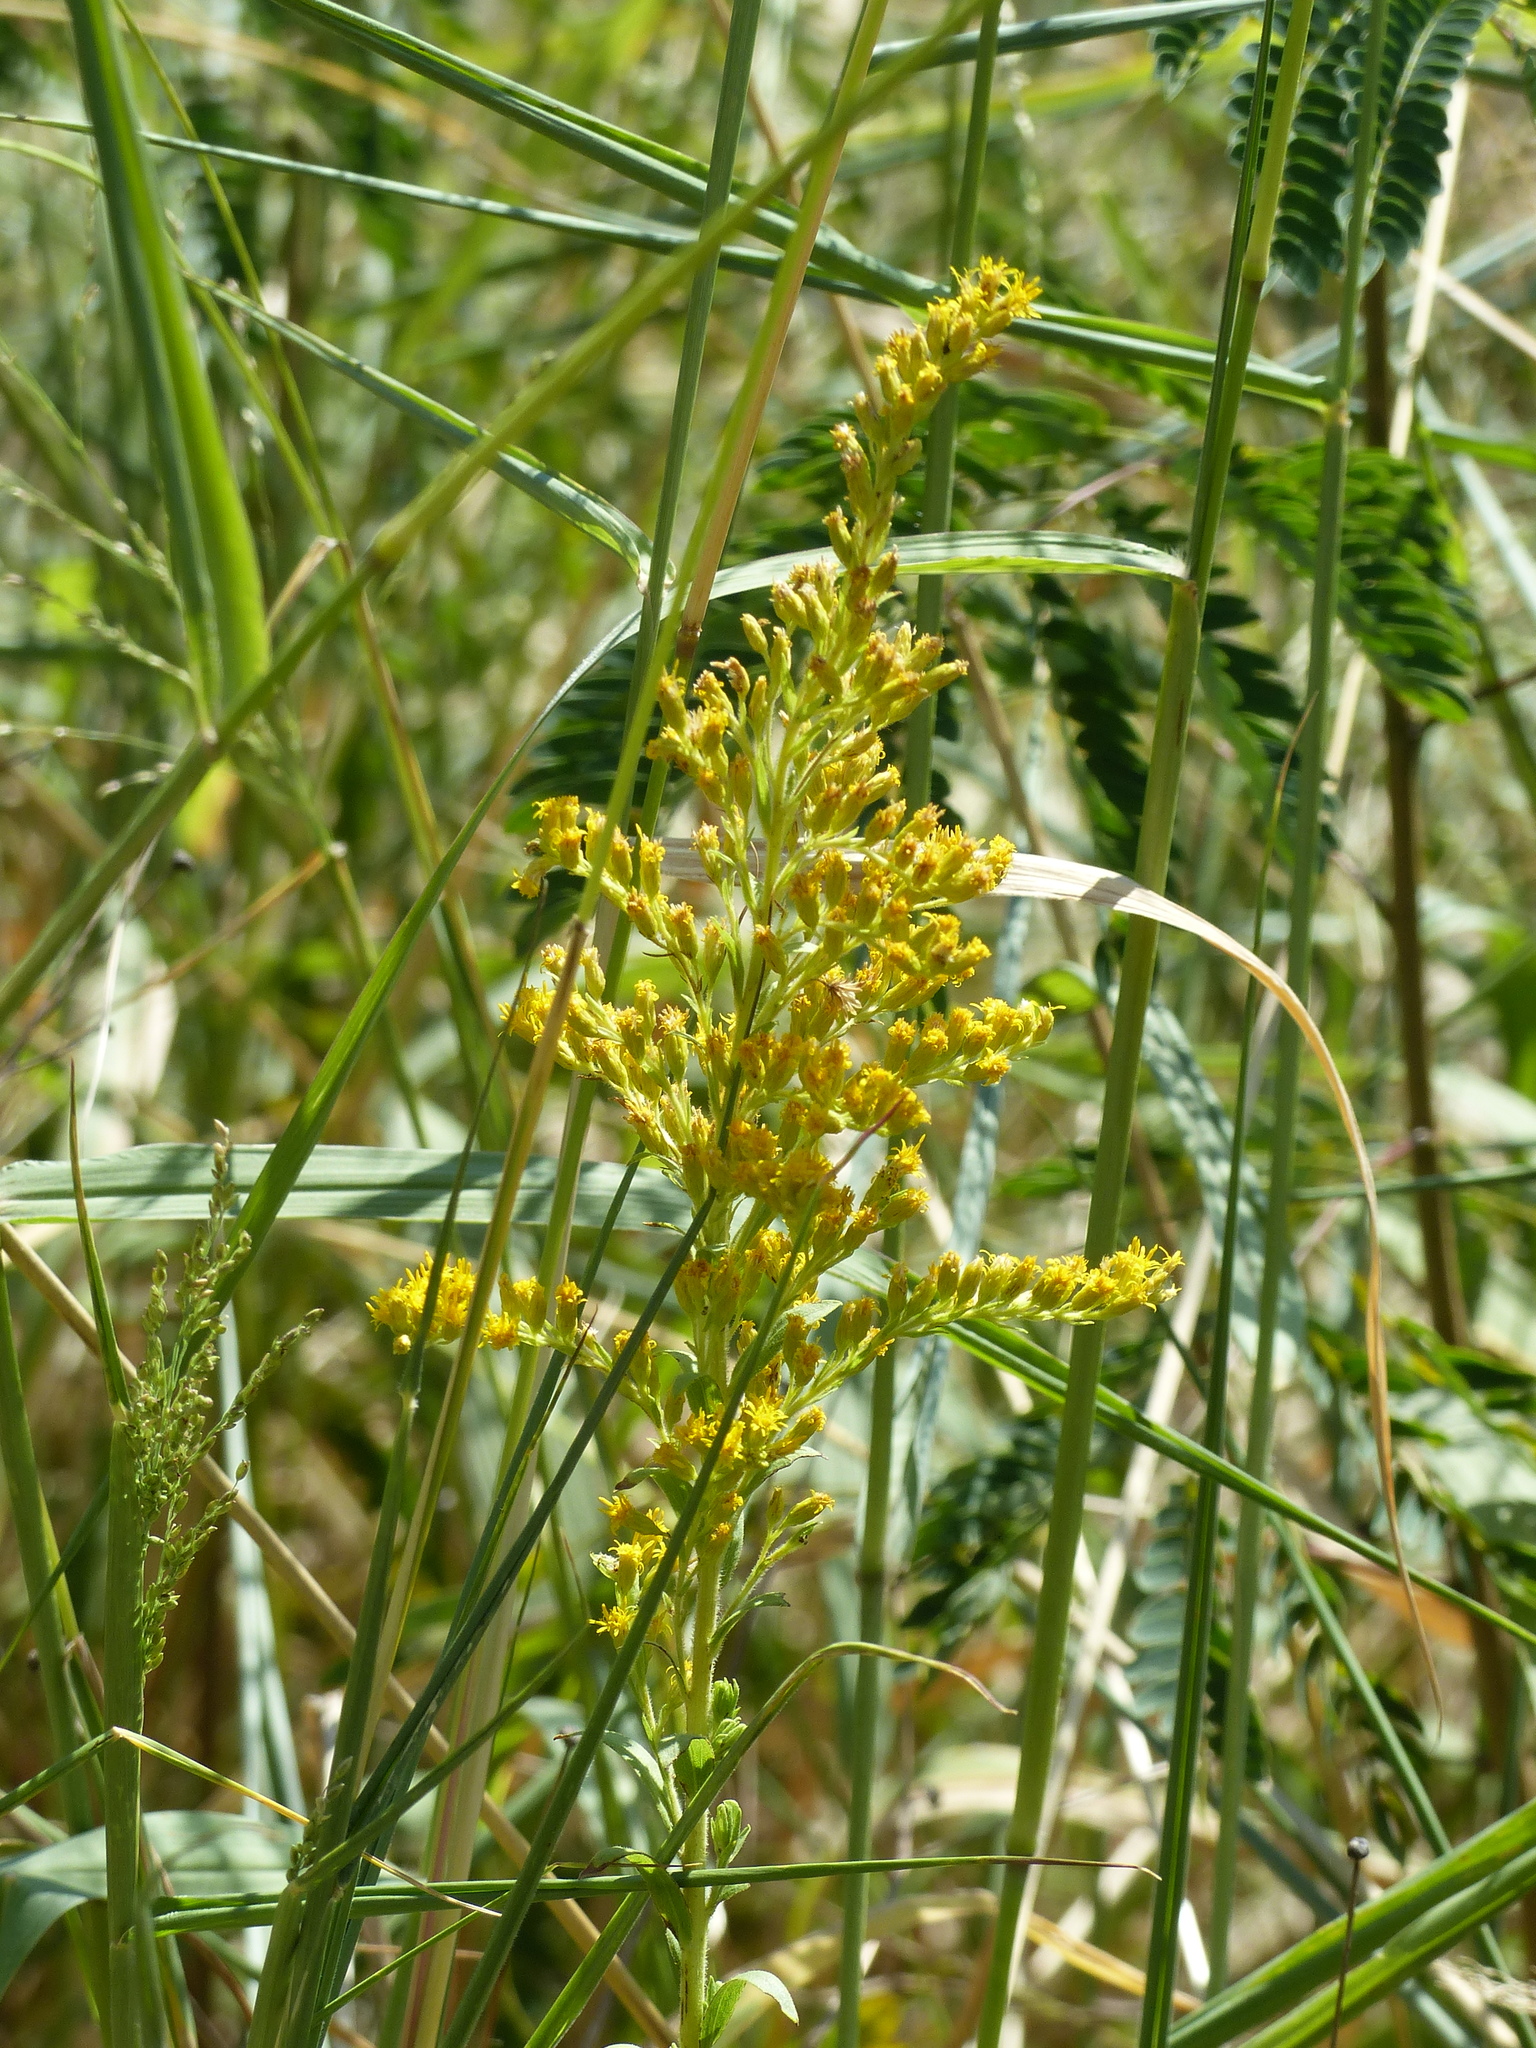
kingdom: Plantae
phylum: Tracheophyta
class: Magnoliopsida
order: Asterales
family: Asteraceae
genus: Solidago
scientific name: Solidago chilensis
